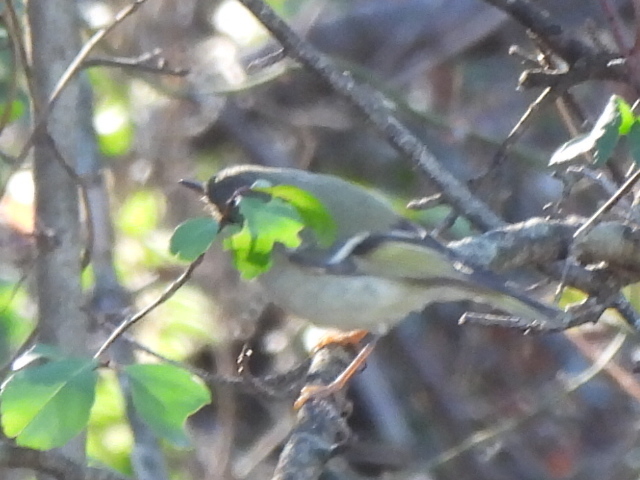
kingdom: Animalia
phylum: Chordata
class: Aves
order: Passeriformes
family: Regulidae
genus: Regulus
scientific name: Regulus calendula
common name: Ruby-crowned kinglet
